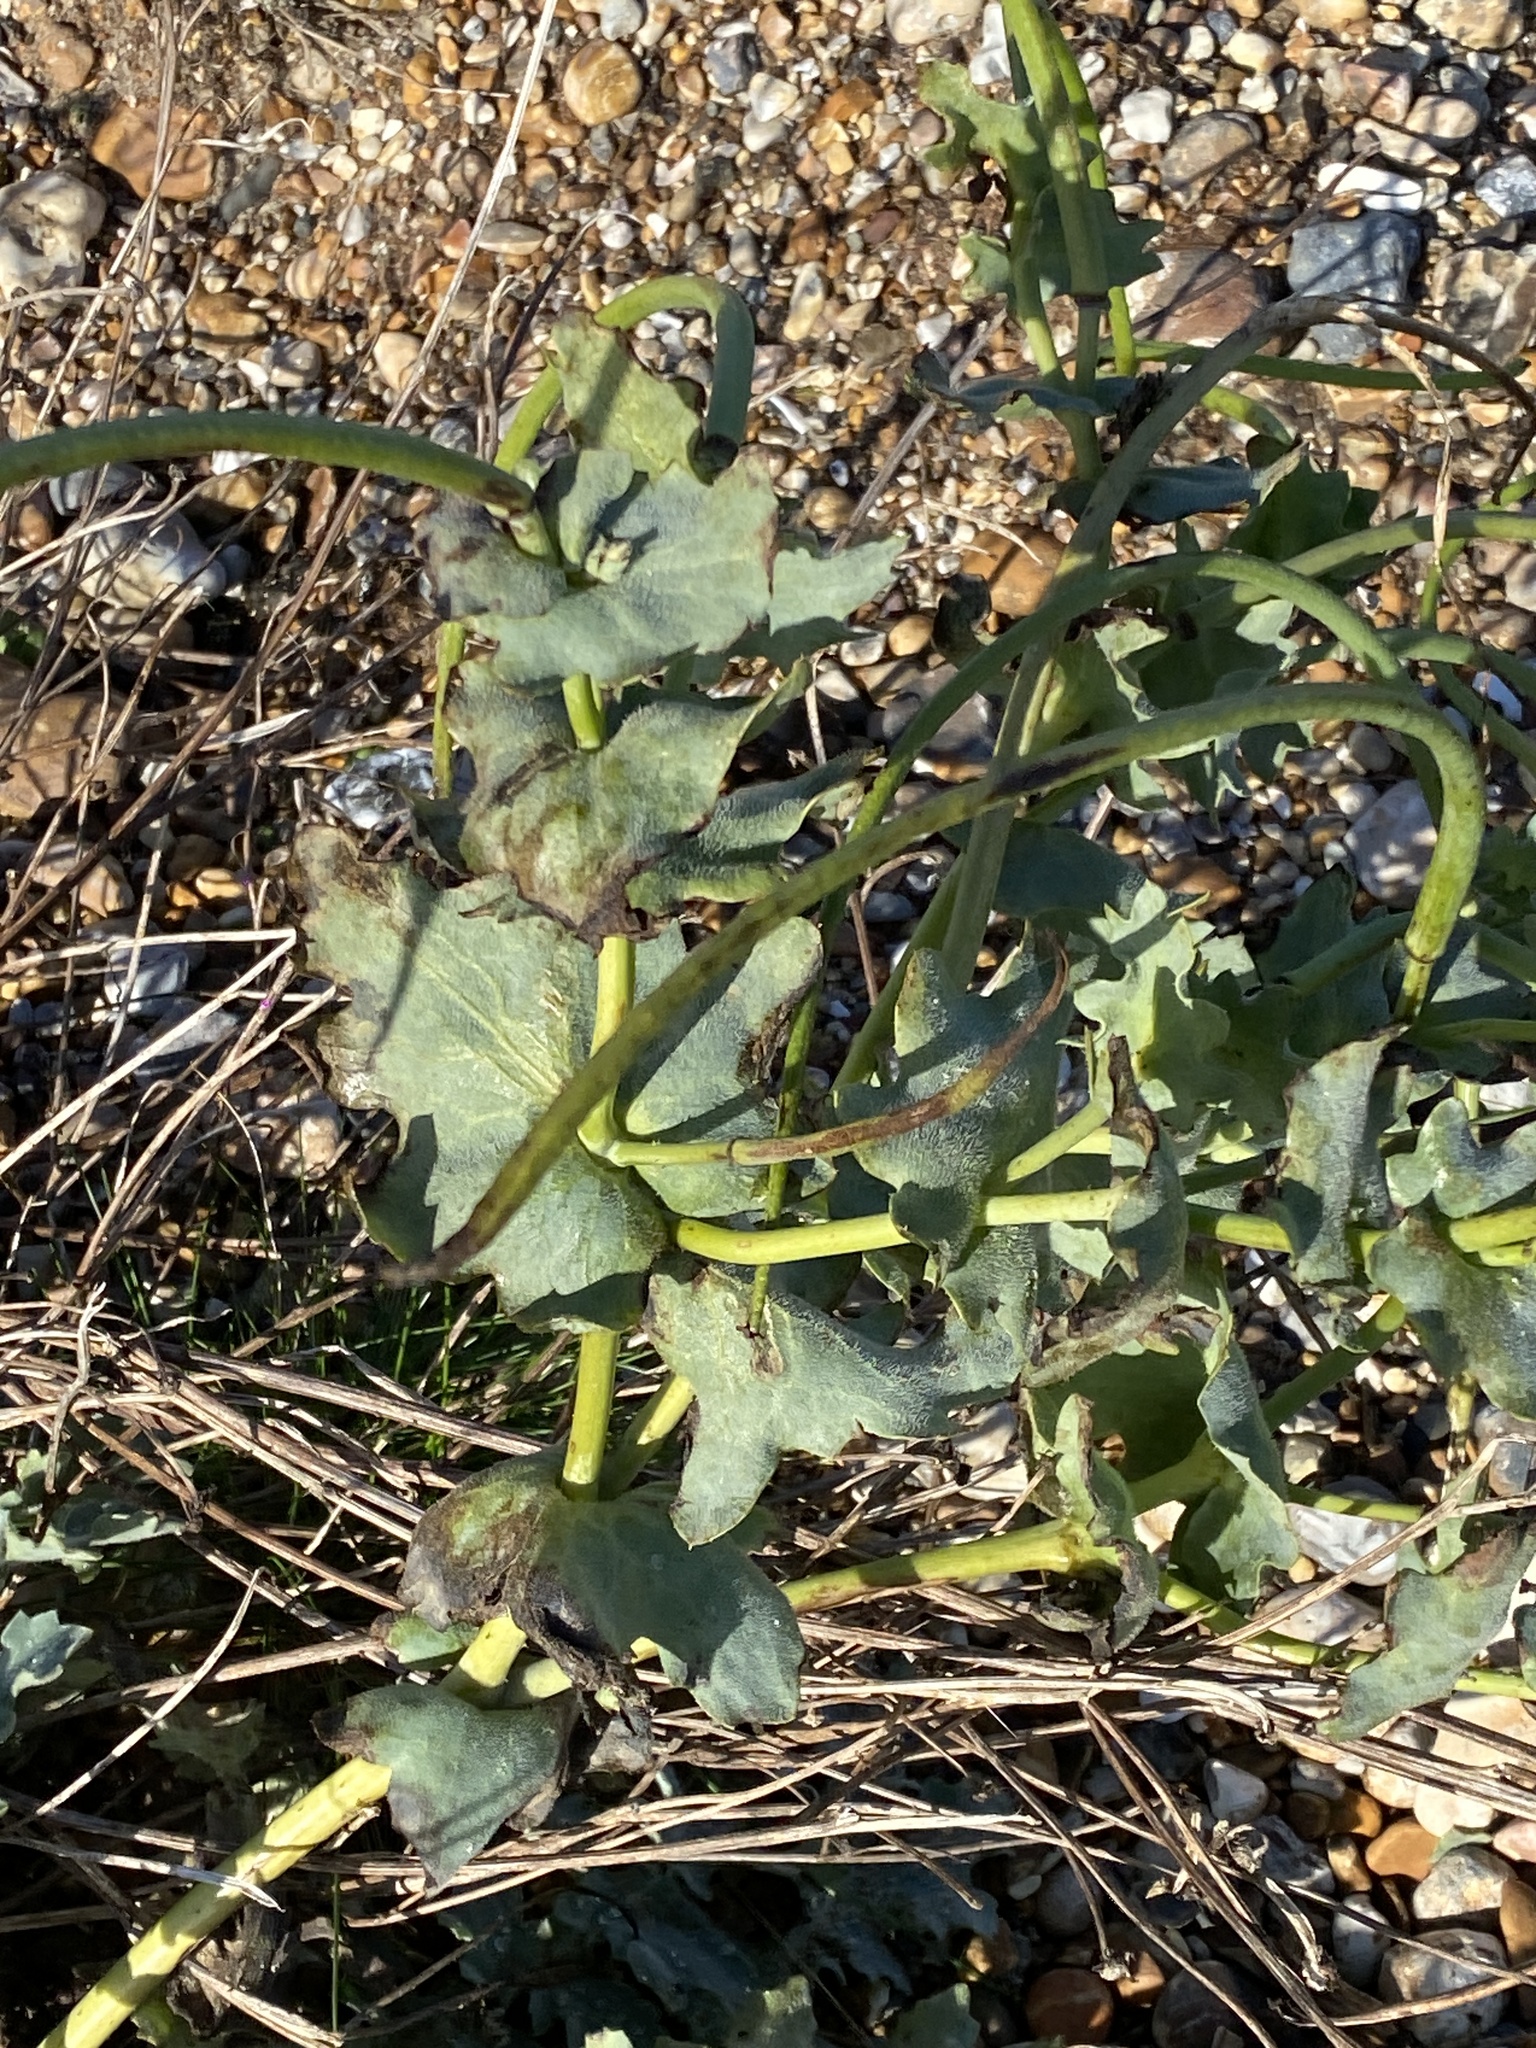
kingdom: Plantae
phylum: Tracheophyta
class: Magnoliopsida
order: Ranunculales
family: Papaveraceae
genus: Glaucium
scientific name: Glaucium flavum
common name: Yellow horned-poppy
